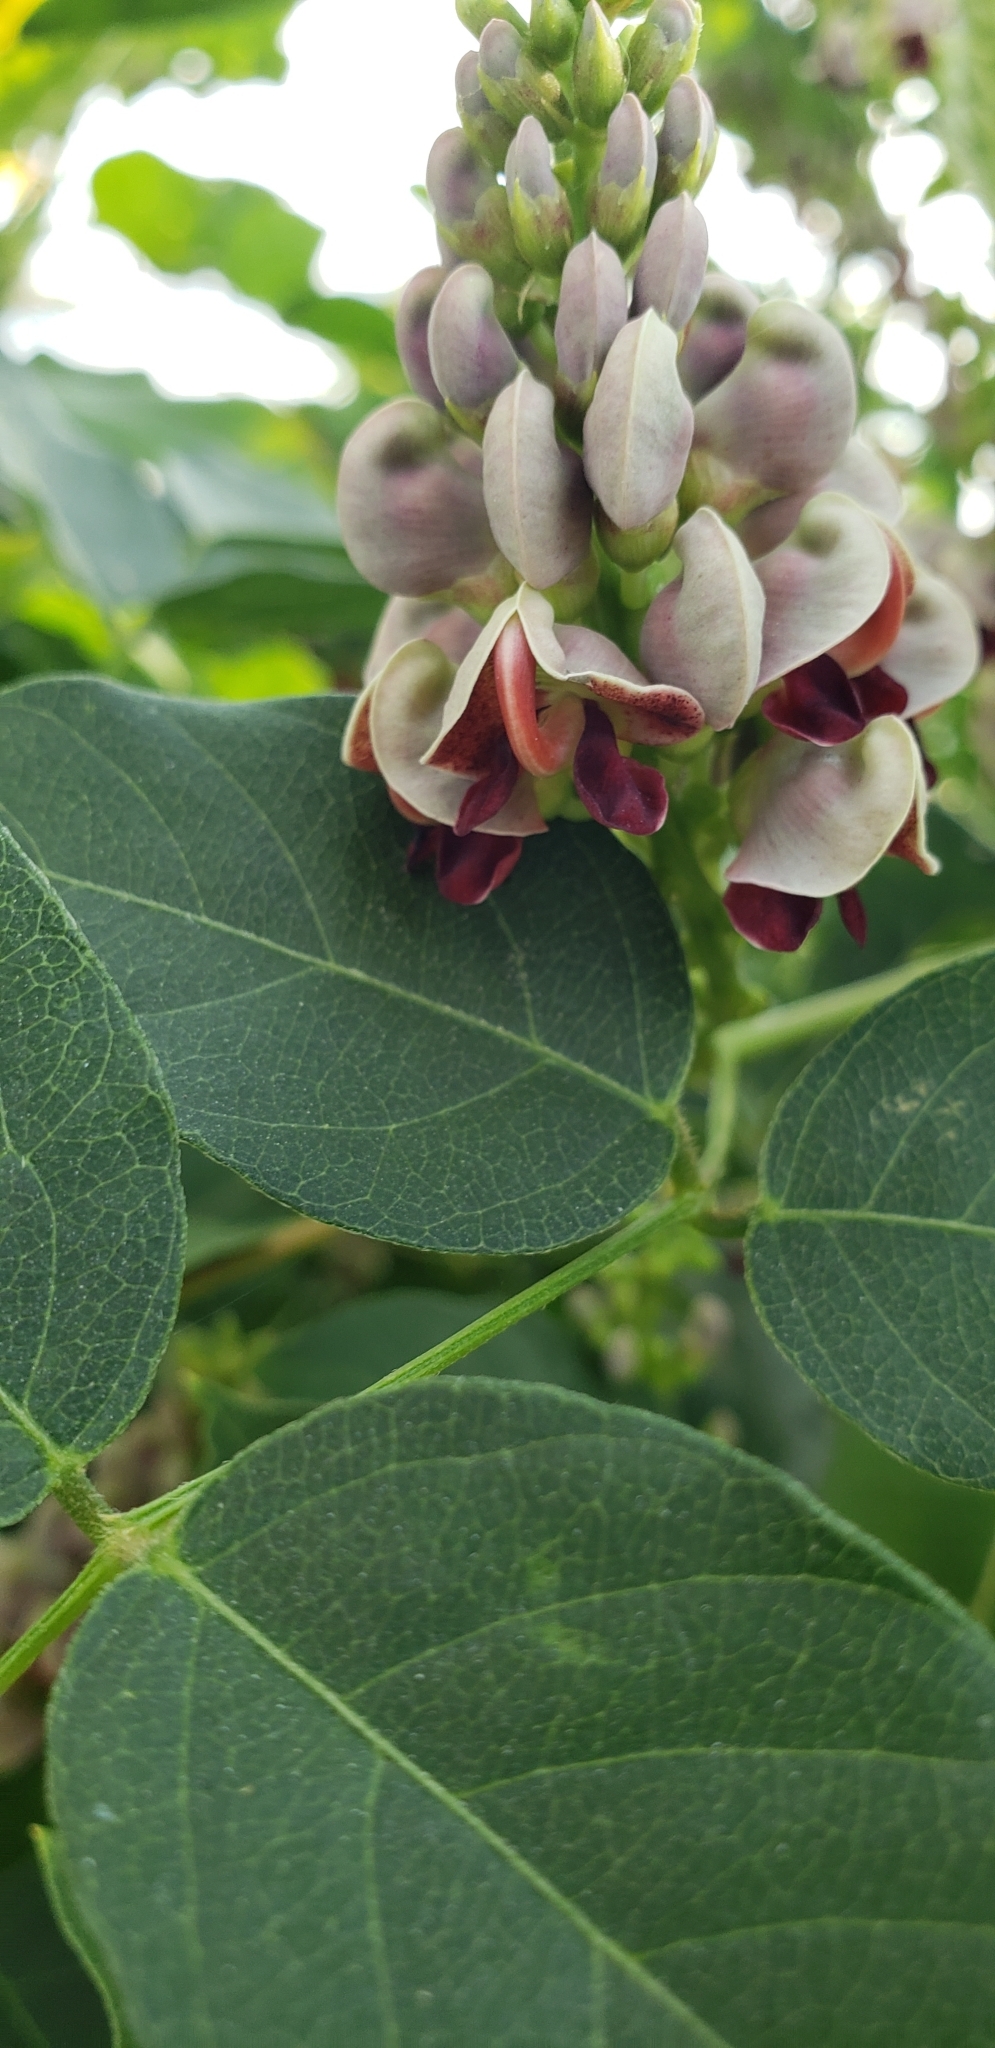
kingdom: Plantae
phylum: Tracheophyta
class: Magnoliopsida
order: Fabales
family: Fabaceae
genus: Apios
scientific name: Apios americana
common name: American potato-bean
